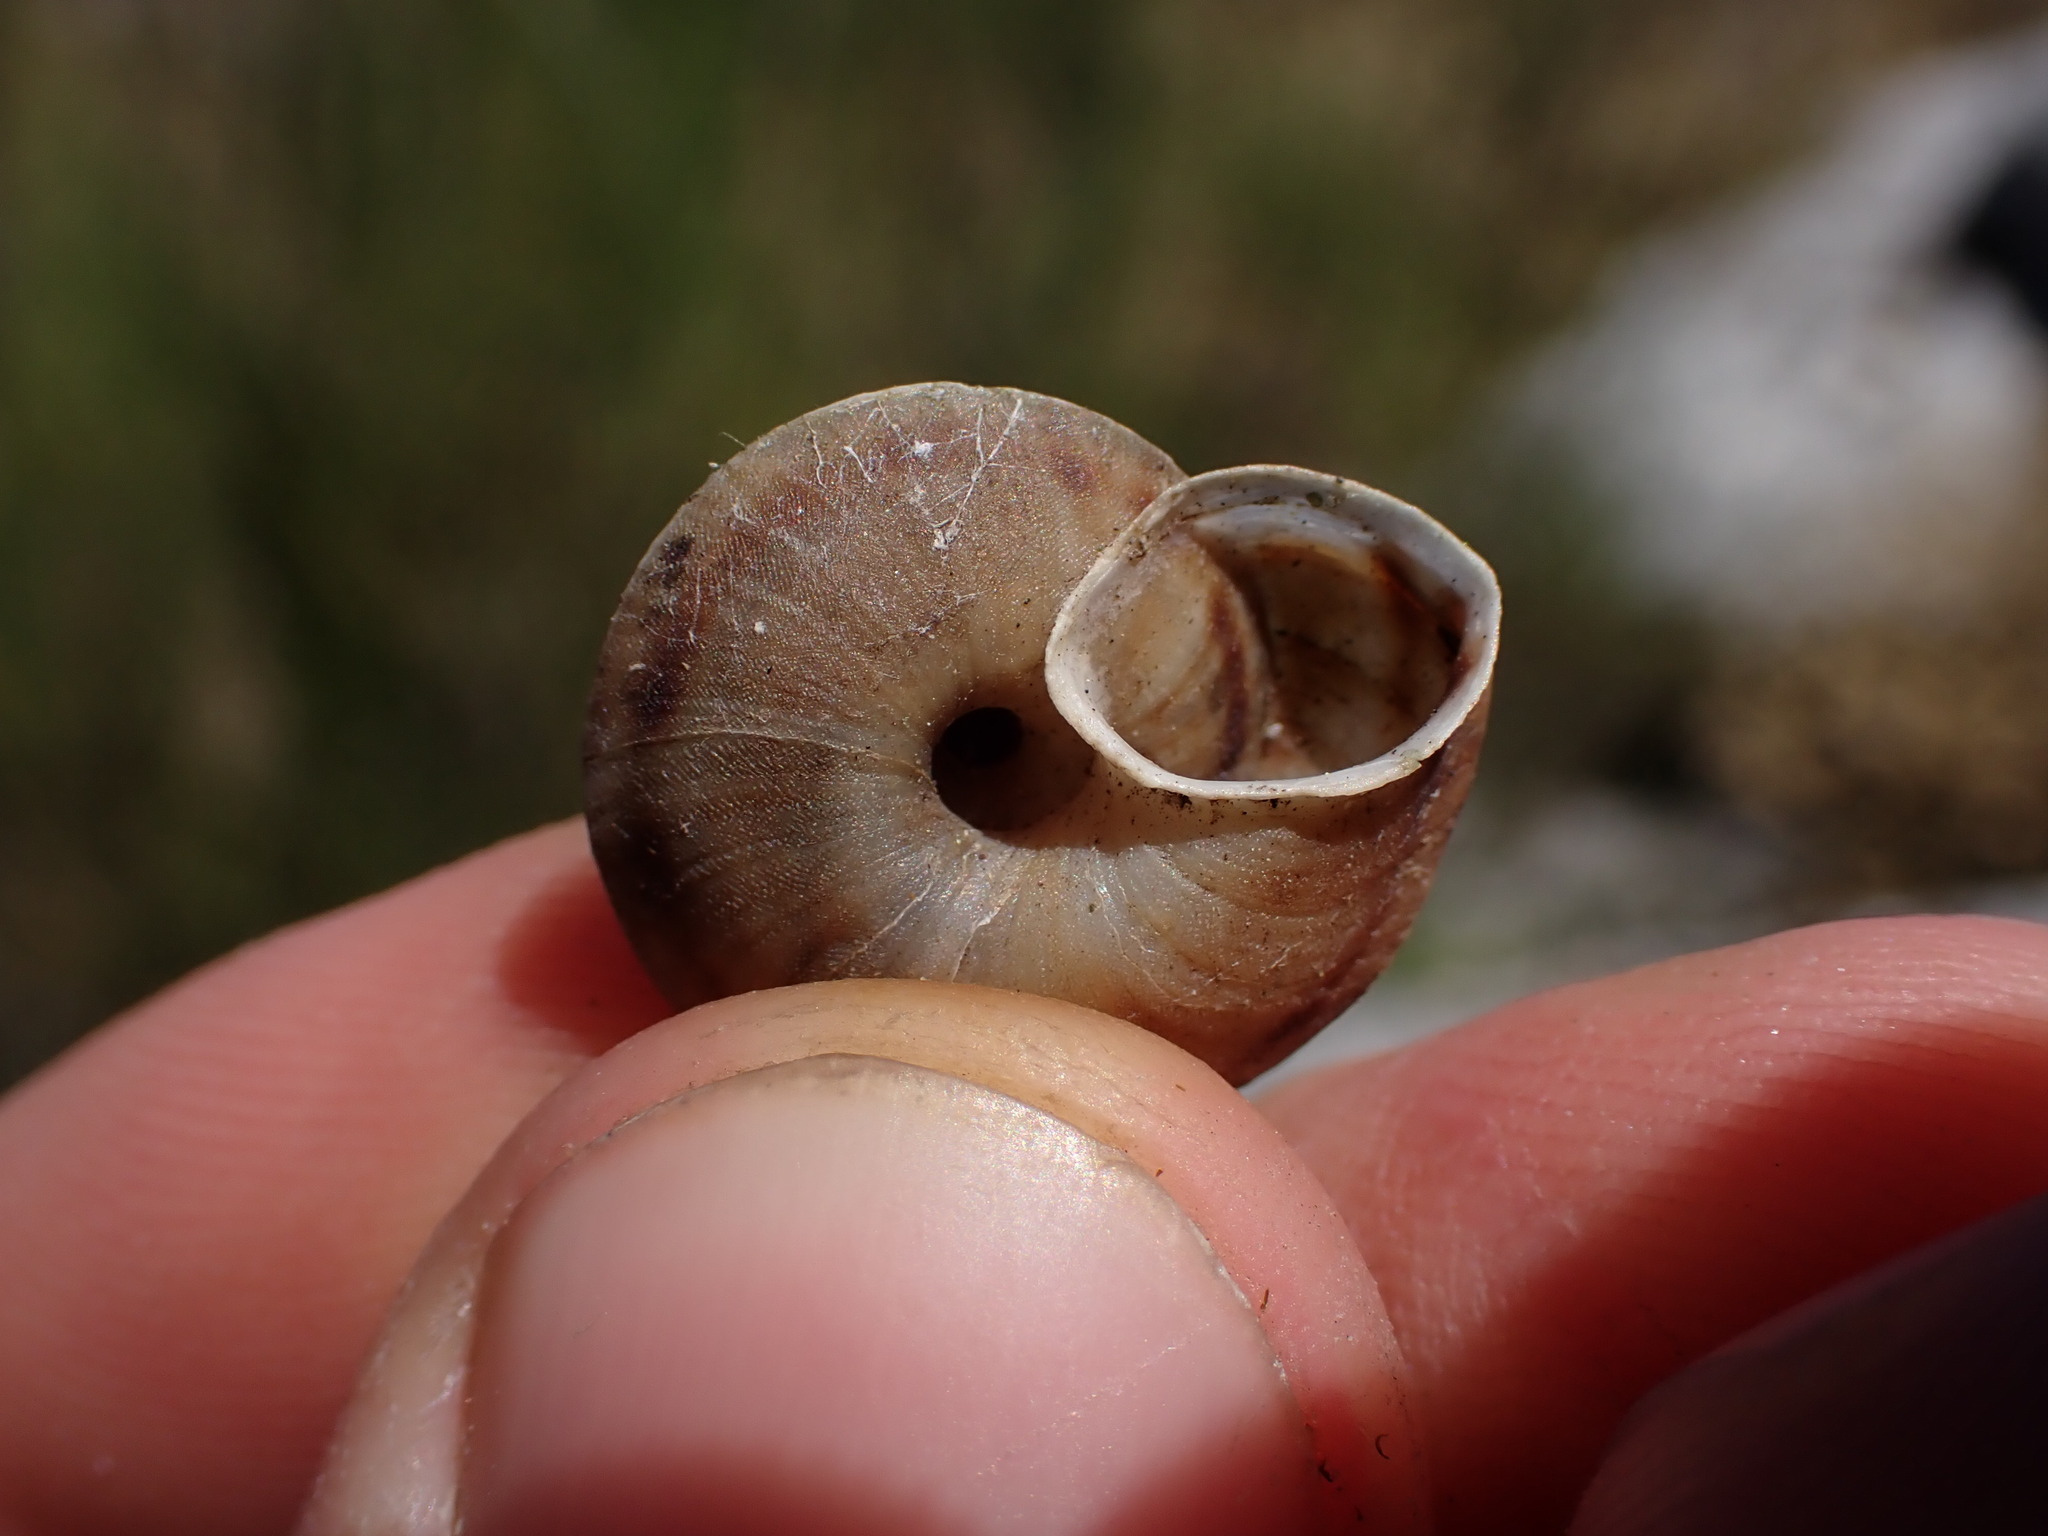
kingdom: Animalia
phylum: Mollusca
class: Gastropoda
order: Stylommatophora
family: Helicidae
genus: Helicigona
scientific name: Helicigona lapicida
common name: Lapidary snail
